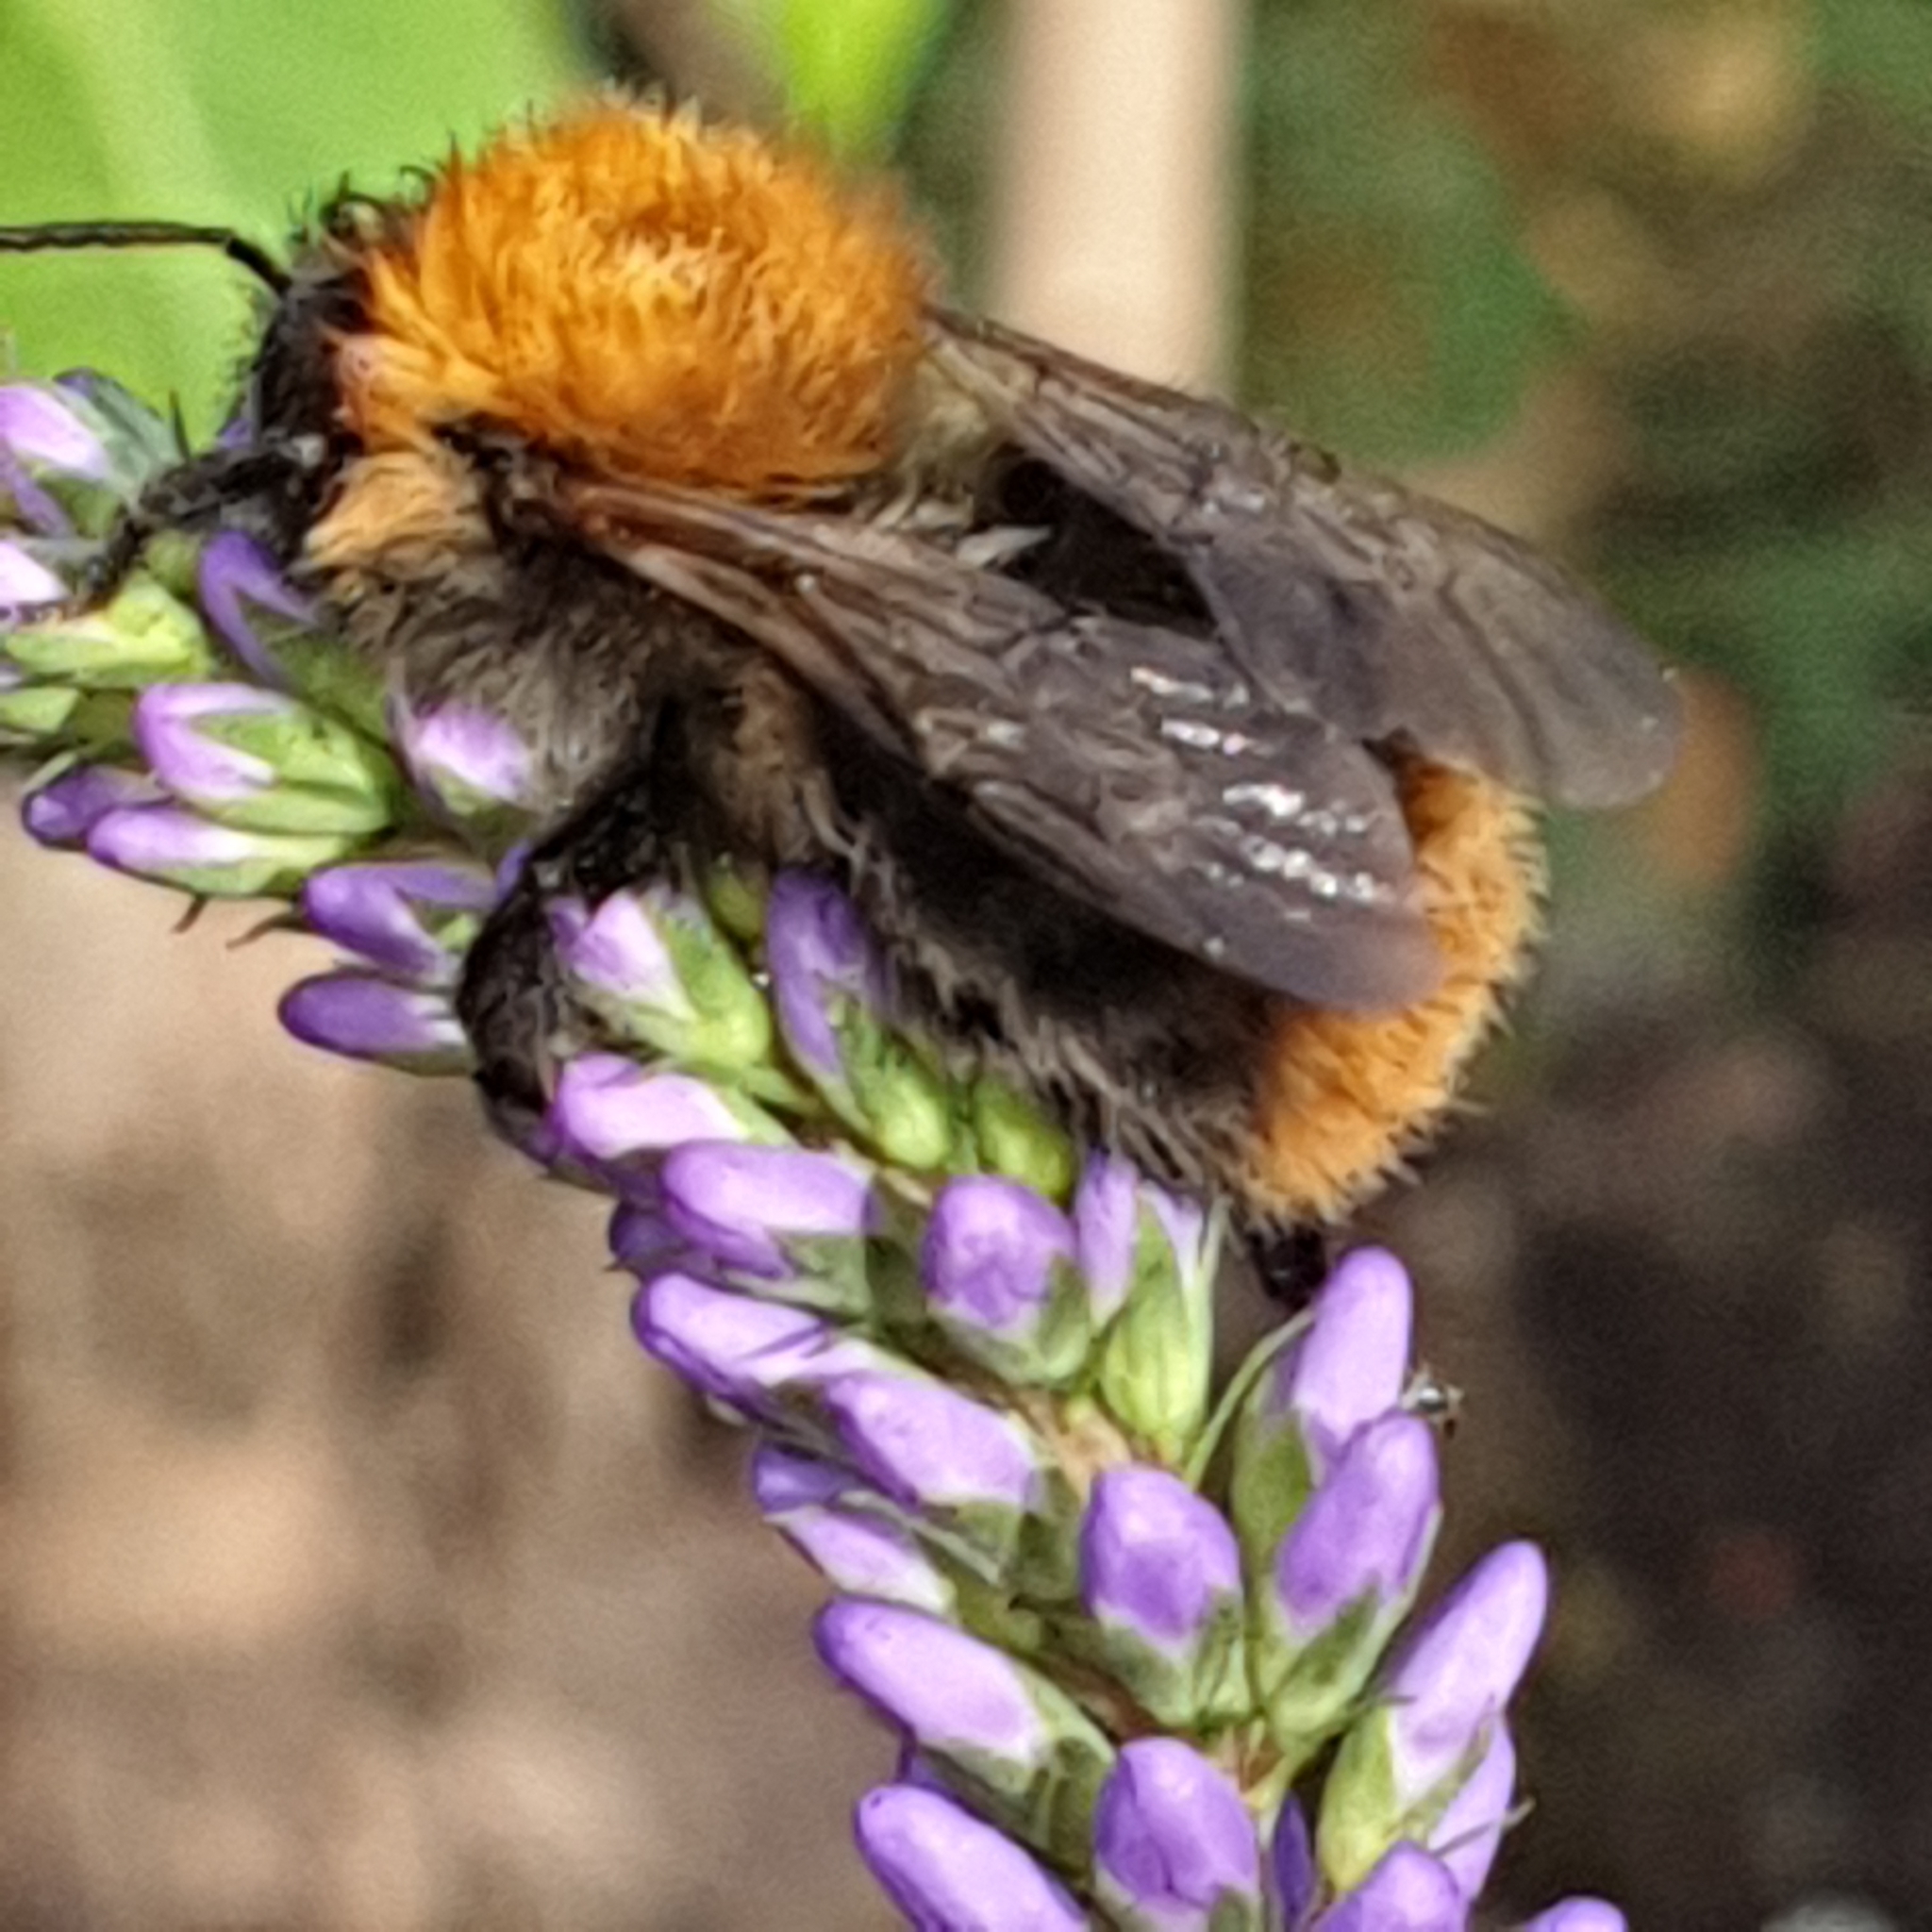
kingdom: Animalia
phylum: Arthropoda
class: Insecta
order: Hymenoptera
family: Apidae
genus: Bombus
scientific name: Bombus pascuorum
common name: Common carder bee
